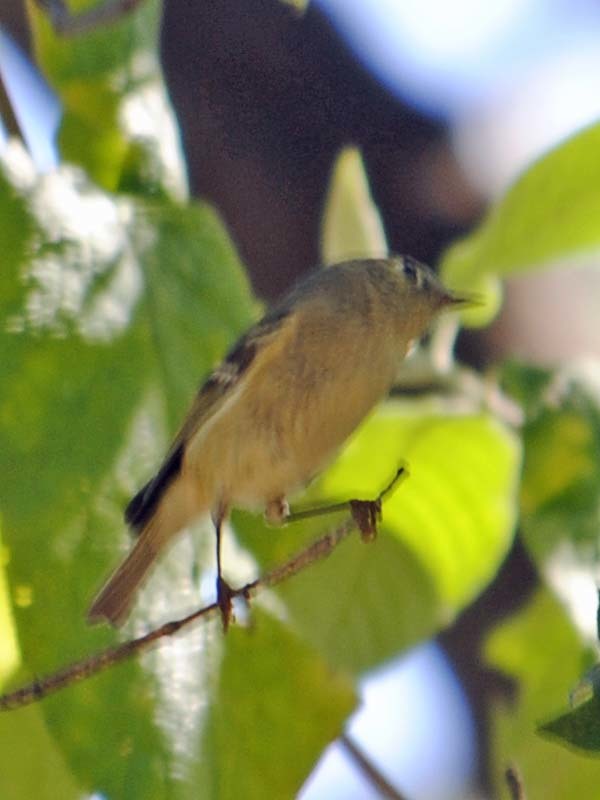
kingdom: Animalia
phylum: Chordata
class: Aves
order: Passeriformes
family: Regulidae
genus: Regulus
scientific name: Regulus calendula
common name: Ruby-crowned kinglet
